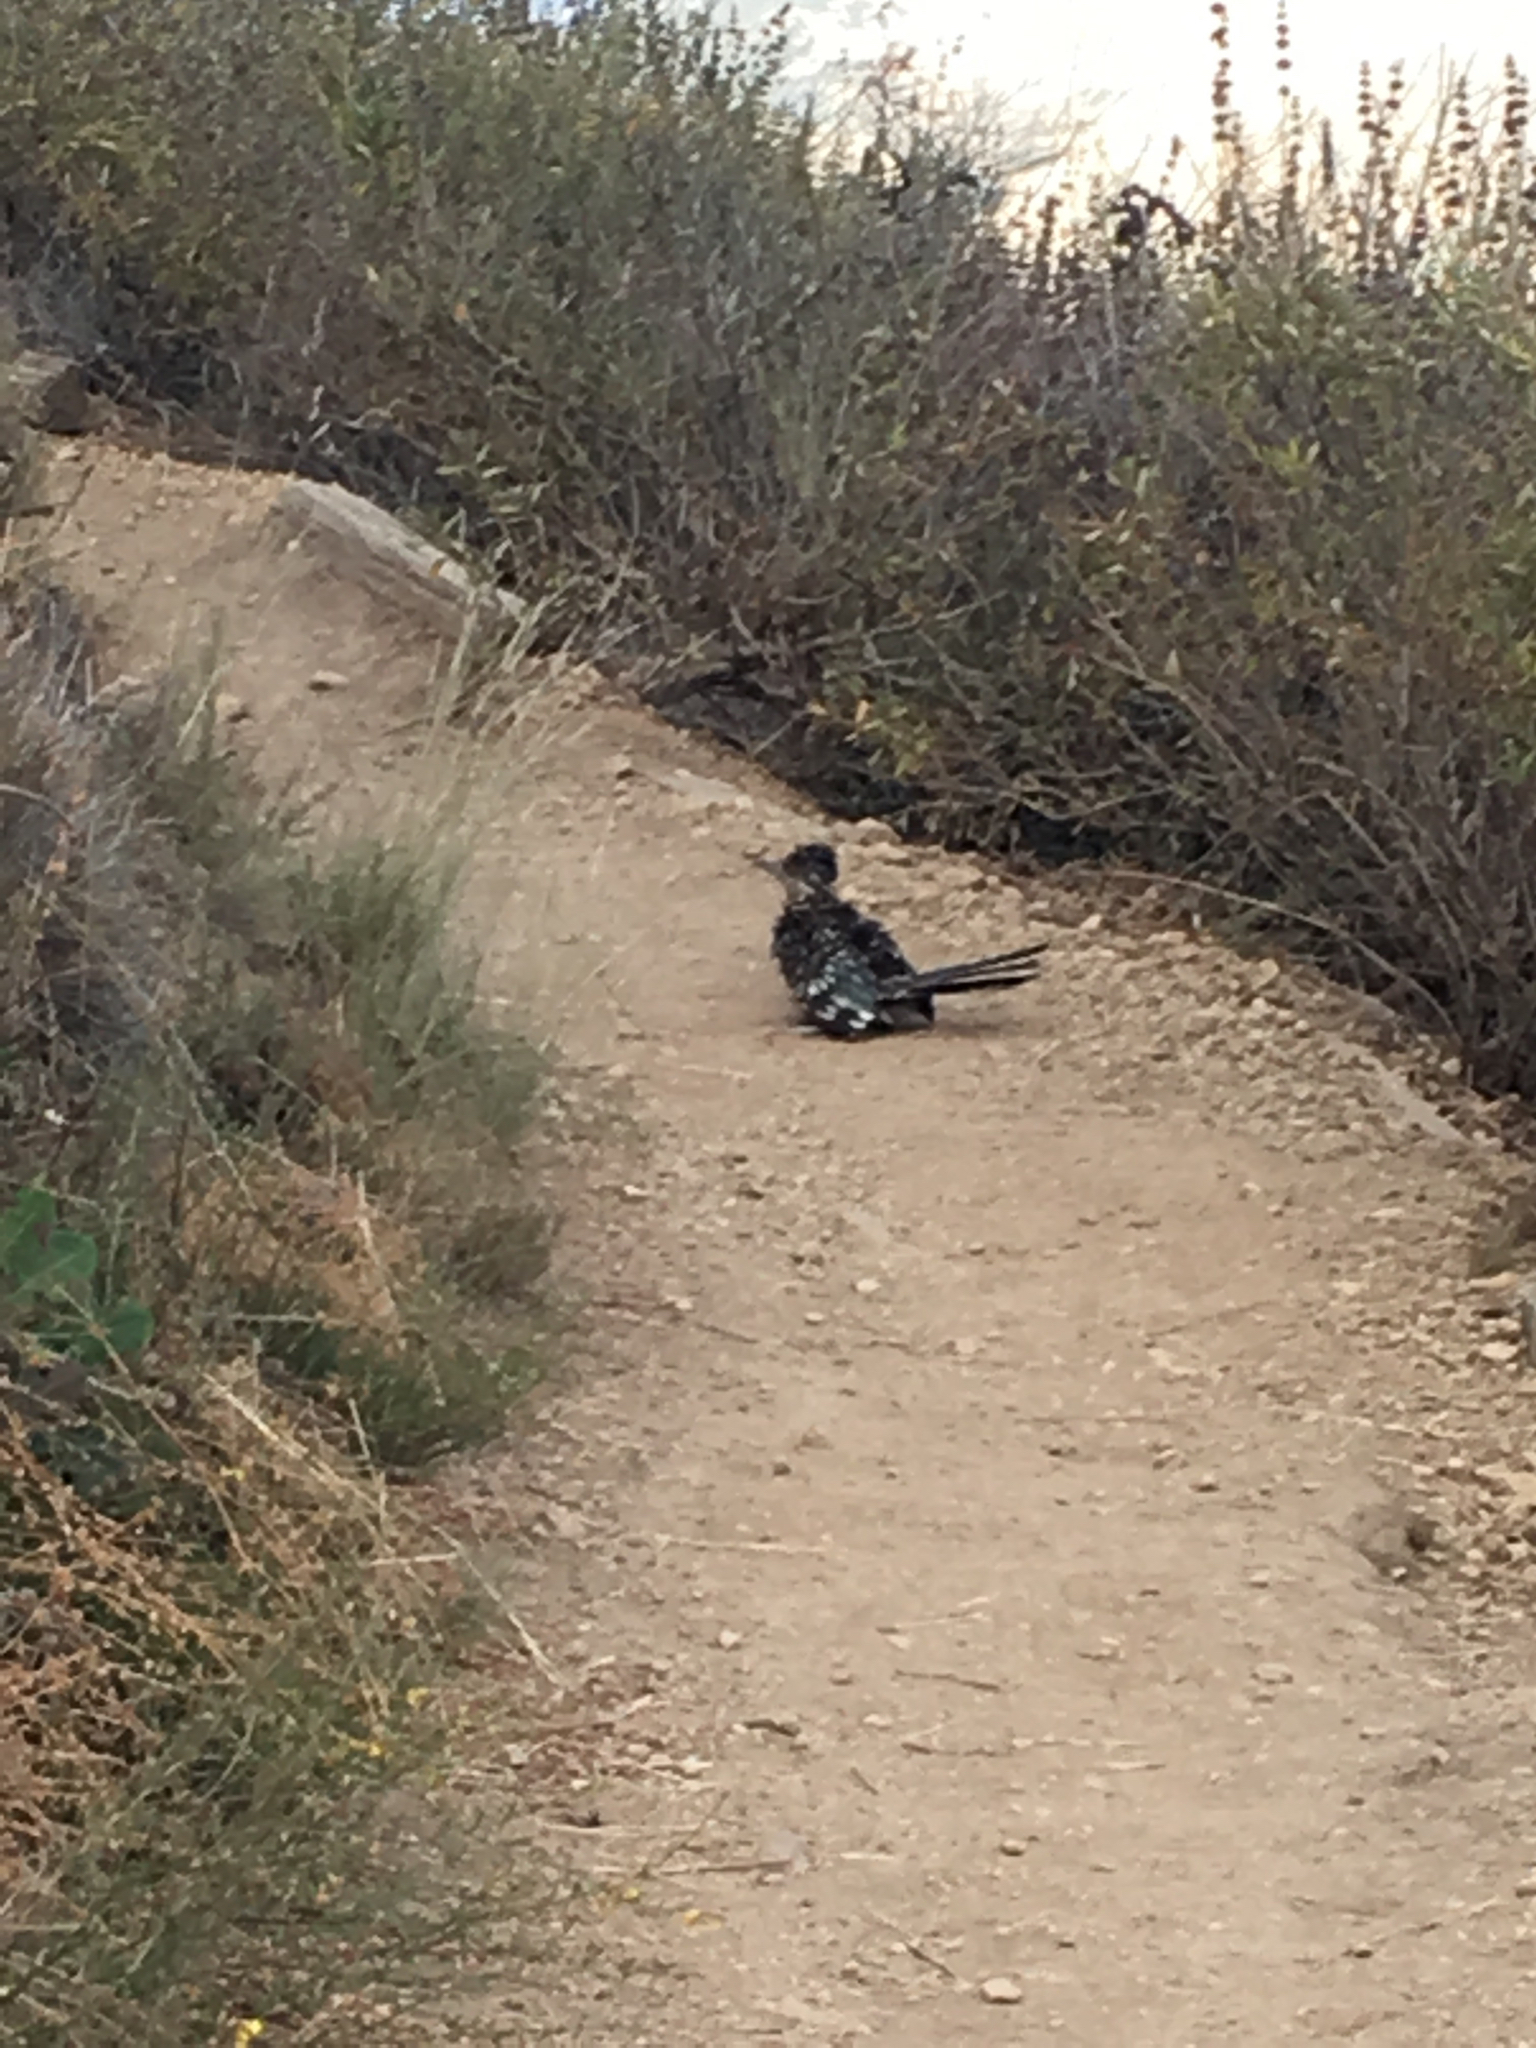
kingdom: Animalia
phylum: Chordata
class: Aves
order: Cuculiformes
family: Cuculidae
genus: Geococcyx
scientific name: Geococcyx californianus
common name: Greater roadrunner
